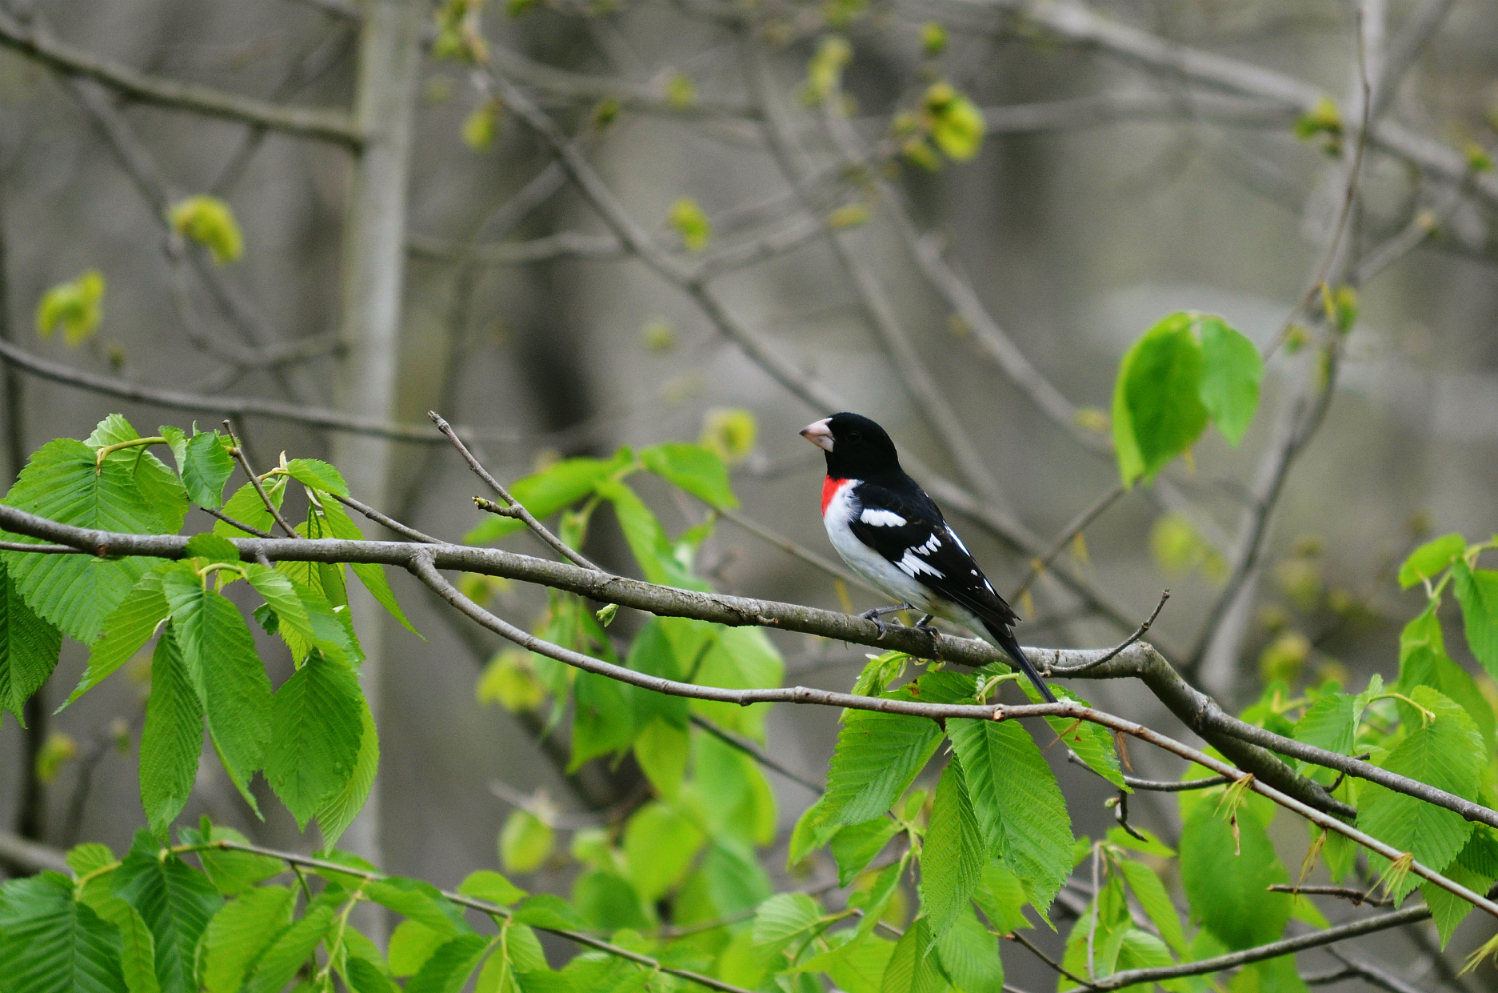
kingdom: Animalia
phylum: Chordata
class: Aves
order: Passeriformes
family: Cardinalidae
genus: Pheucticus
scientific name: Pheucticus ludovicianus
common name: Rose-breasted grosbeak
